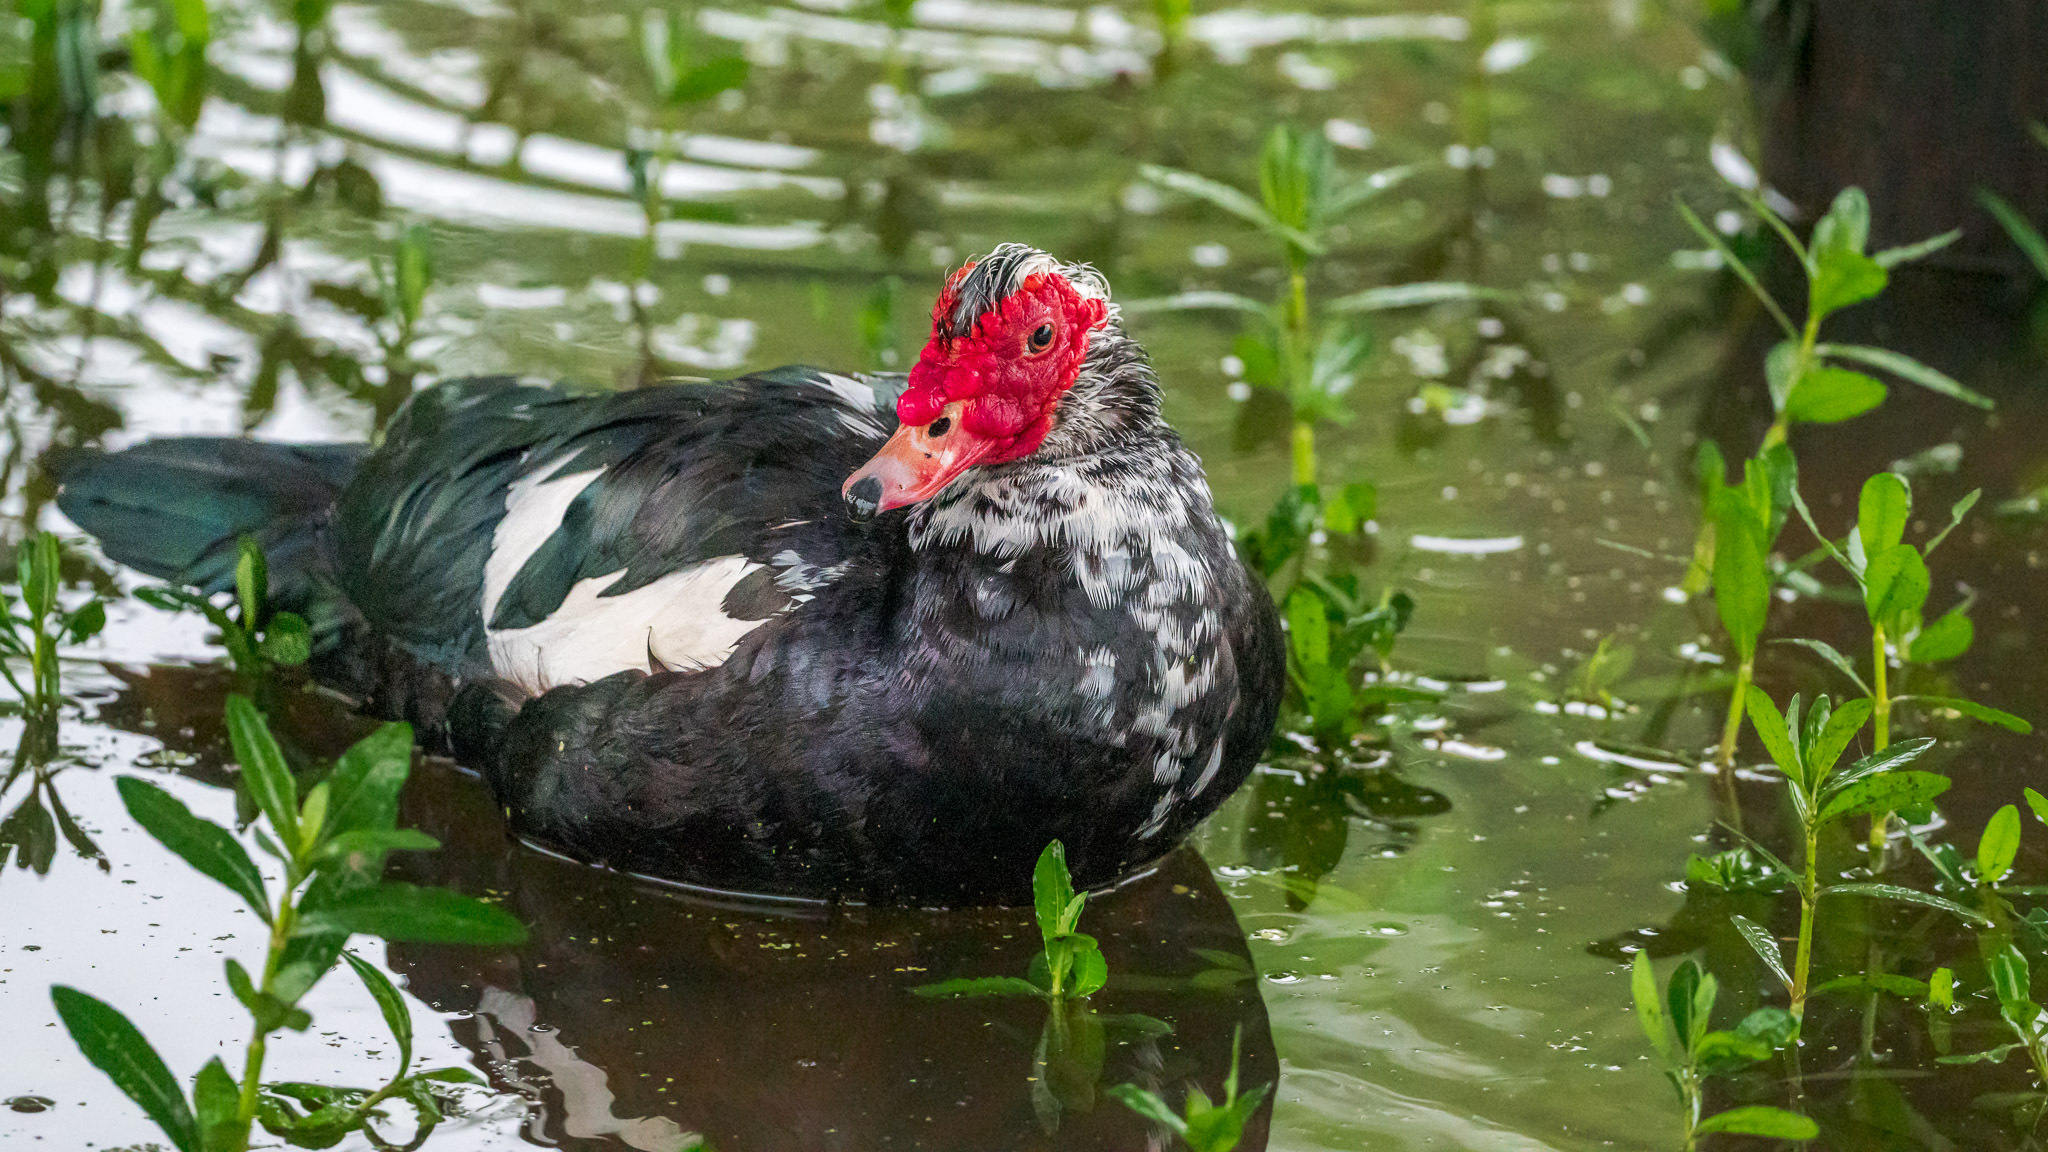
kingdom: Animalia
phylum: Chordata
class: Aves
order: Anseriformes
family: Anatidae
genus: Cairina
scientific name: Cairina moschata
